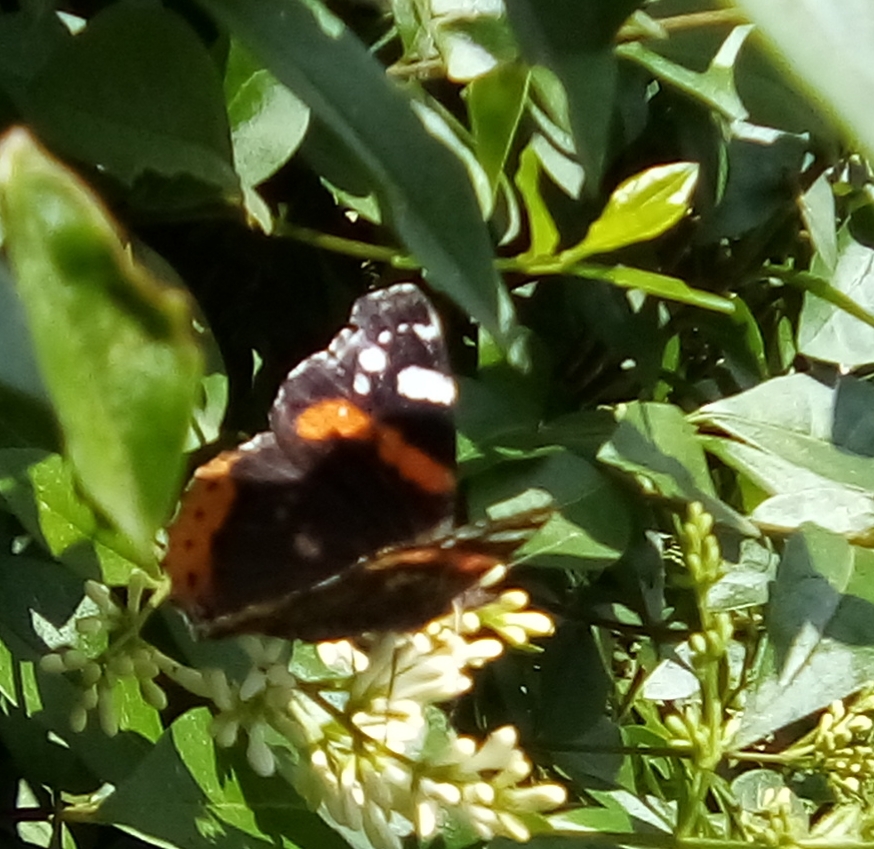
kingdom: Animalia
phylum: Arthropoda
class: Insecta
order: Lepidoptera
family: Nymphalidae
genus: Vanessa
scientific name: Vanessa atalanta
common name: Red admiral
